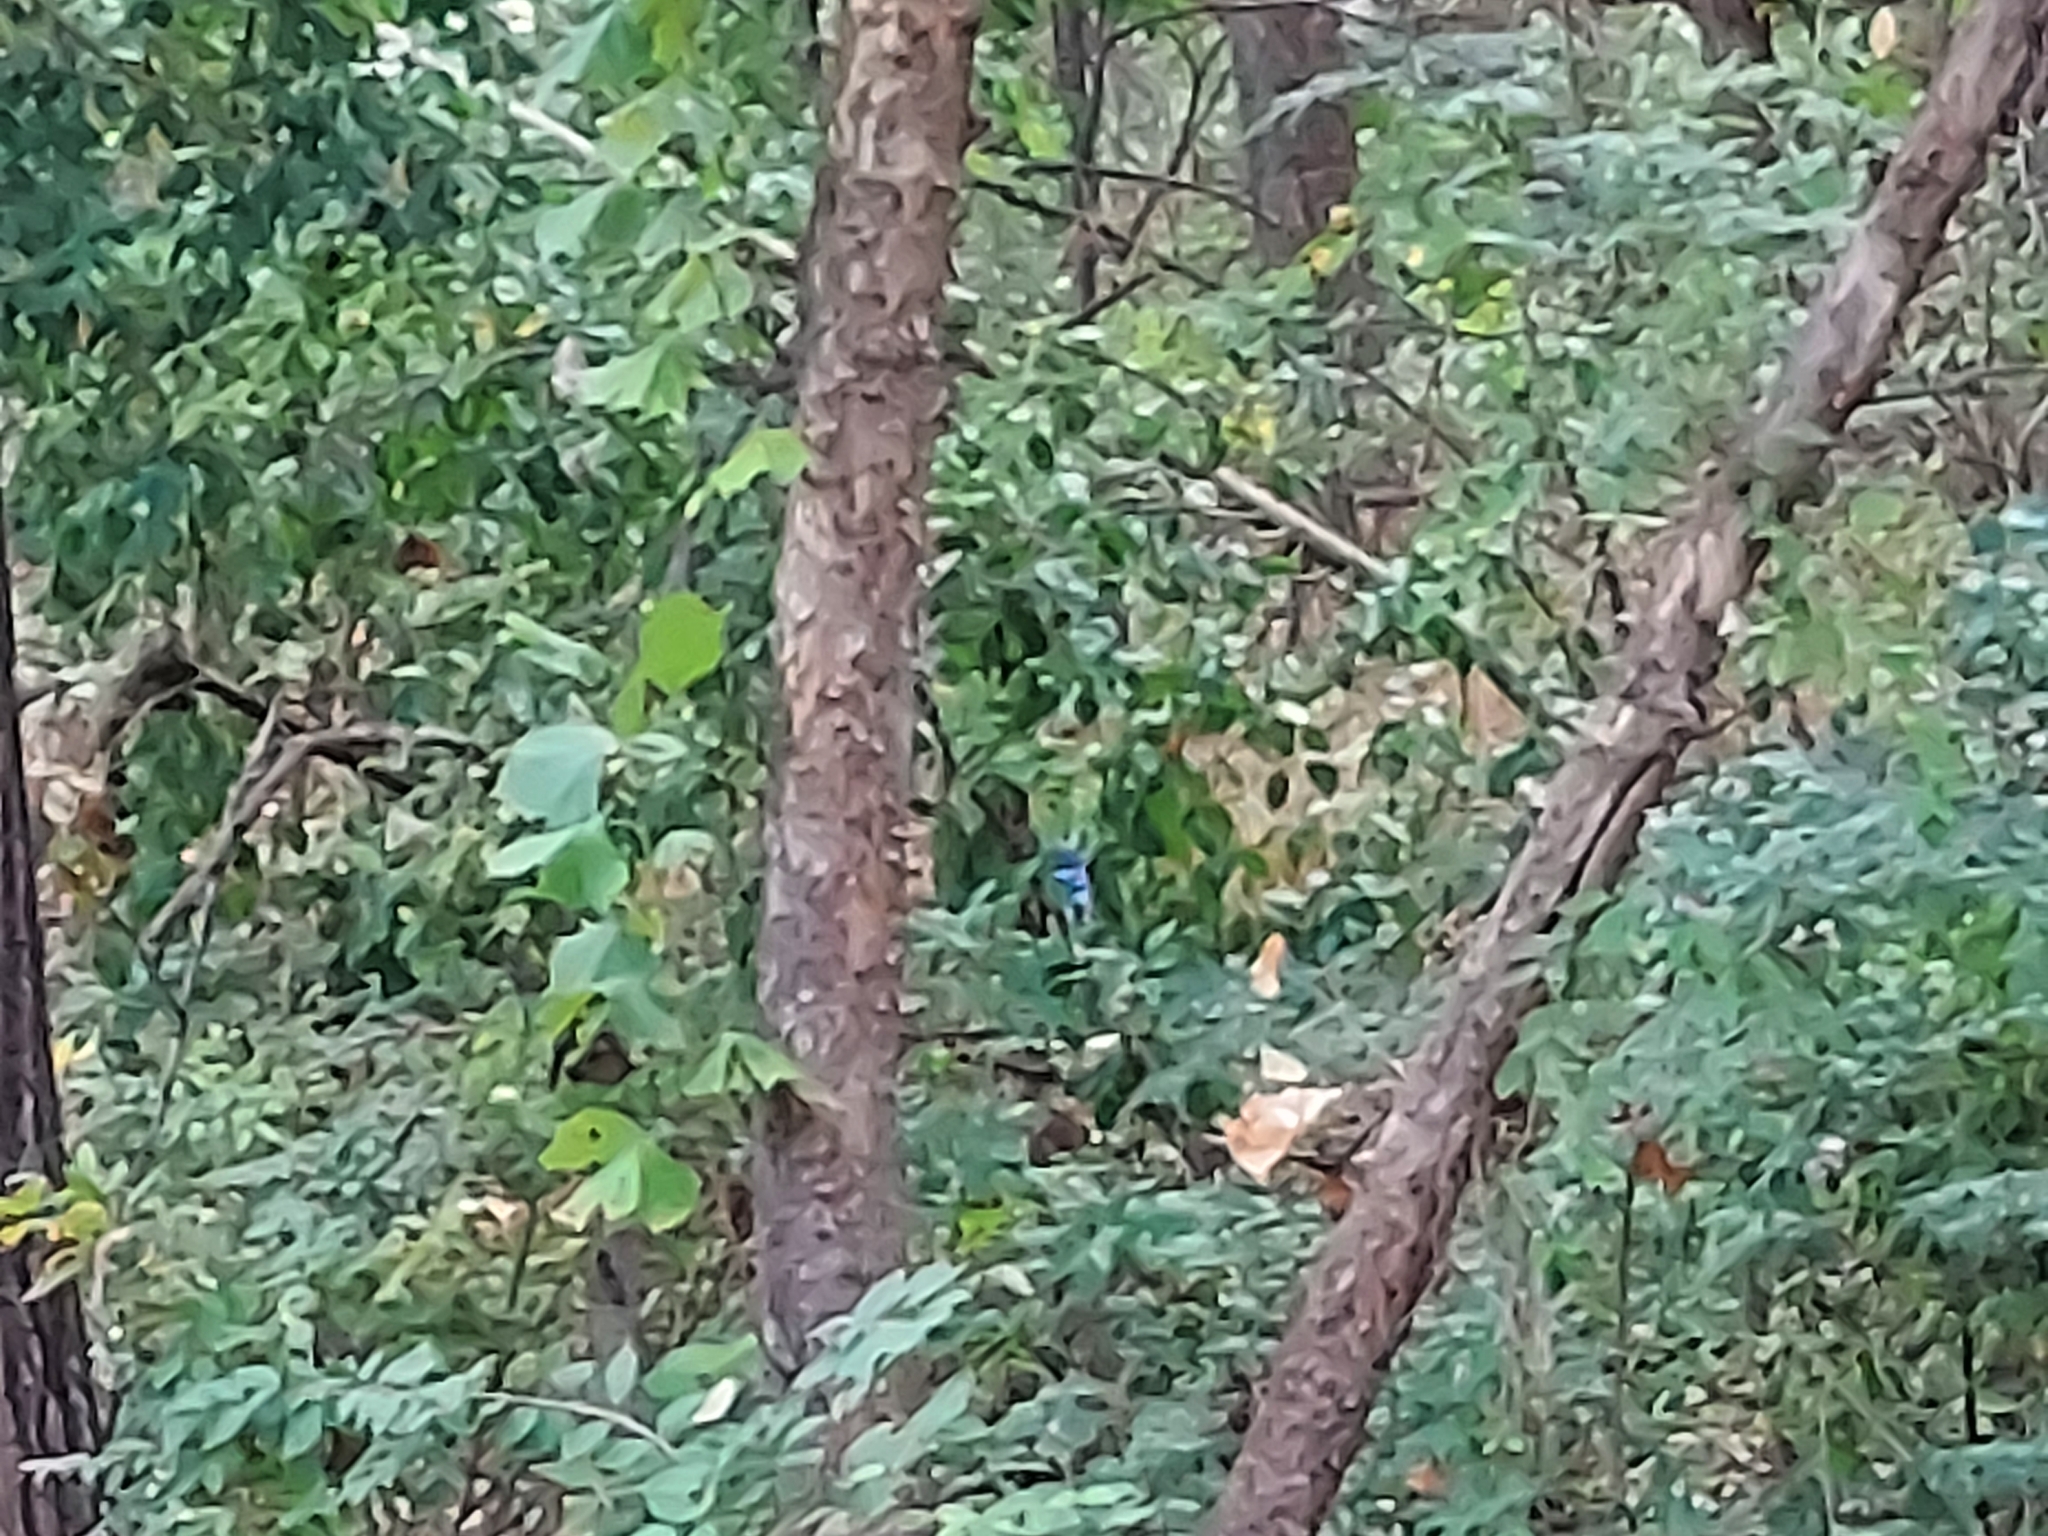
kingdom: Animalia
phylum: Chordata
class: Aves
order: Passeriformes
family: Corvidae
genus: Cyanocitta
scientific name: Cyanocitta cristata
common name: Blue jay
